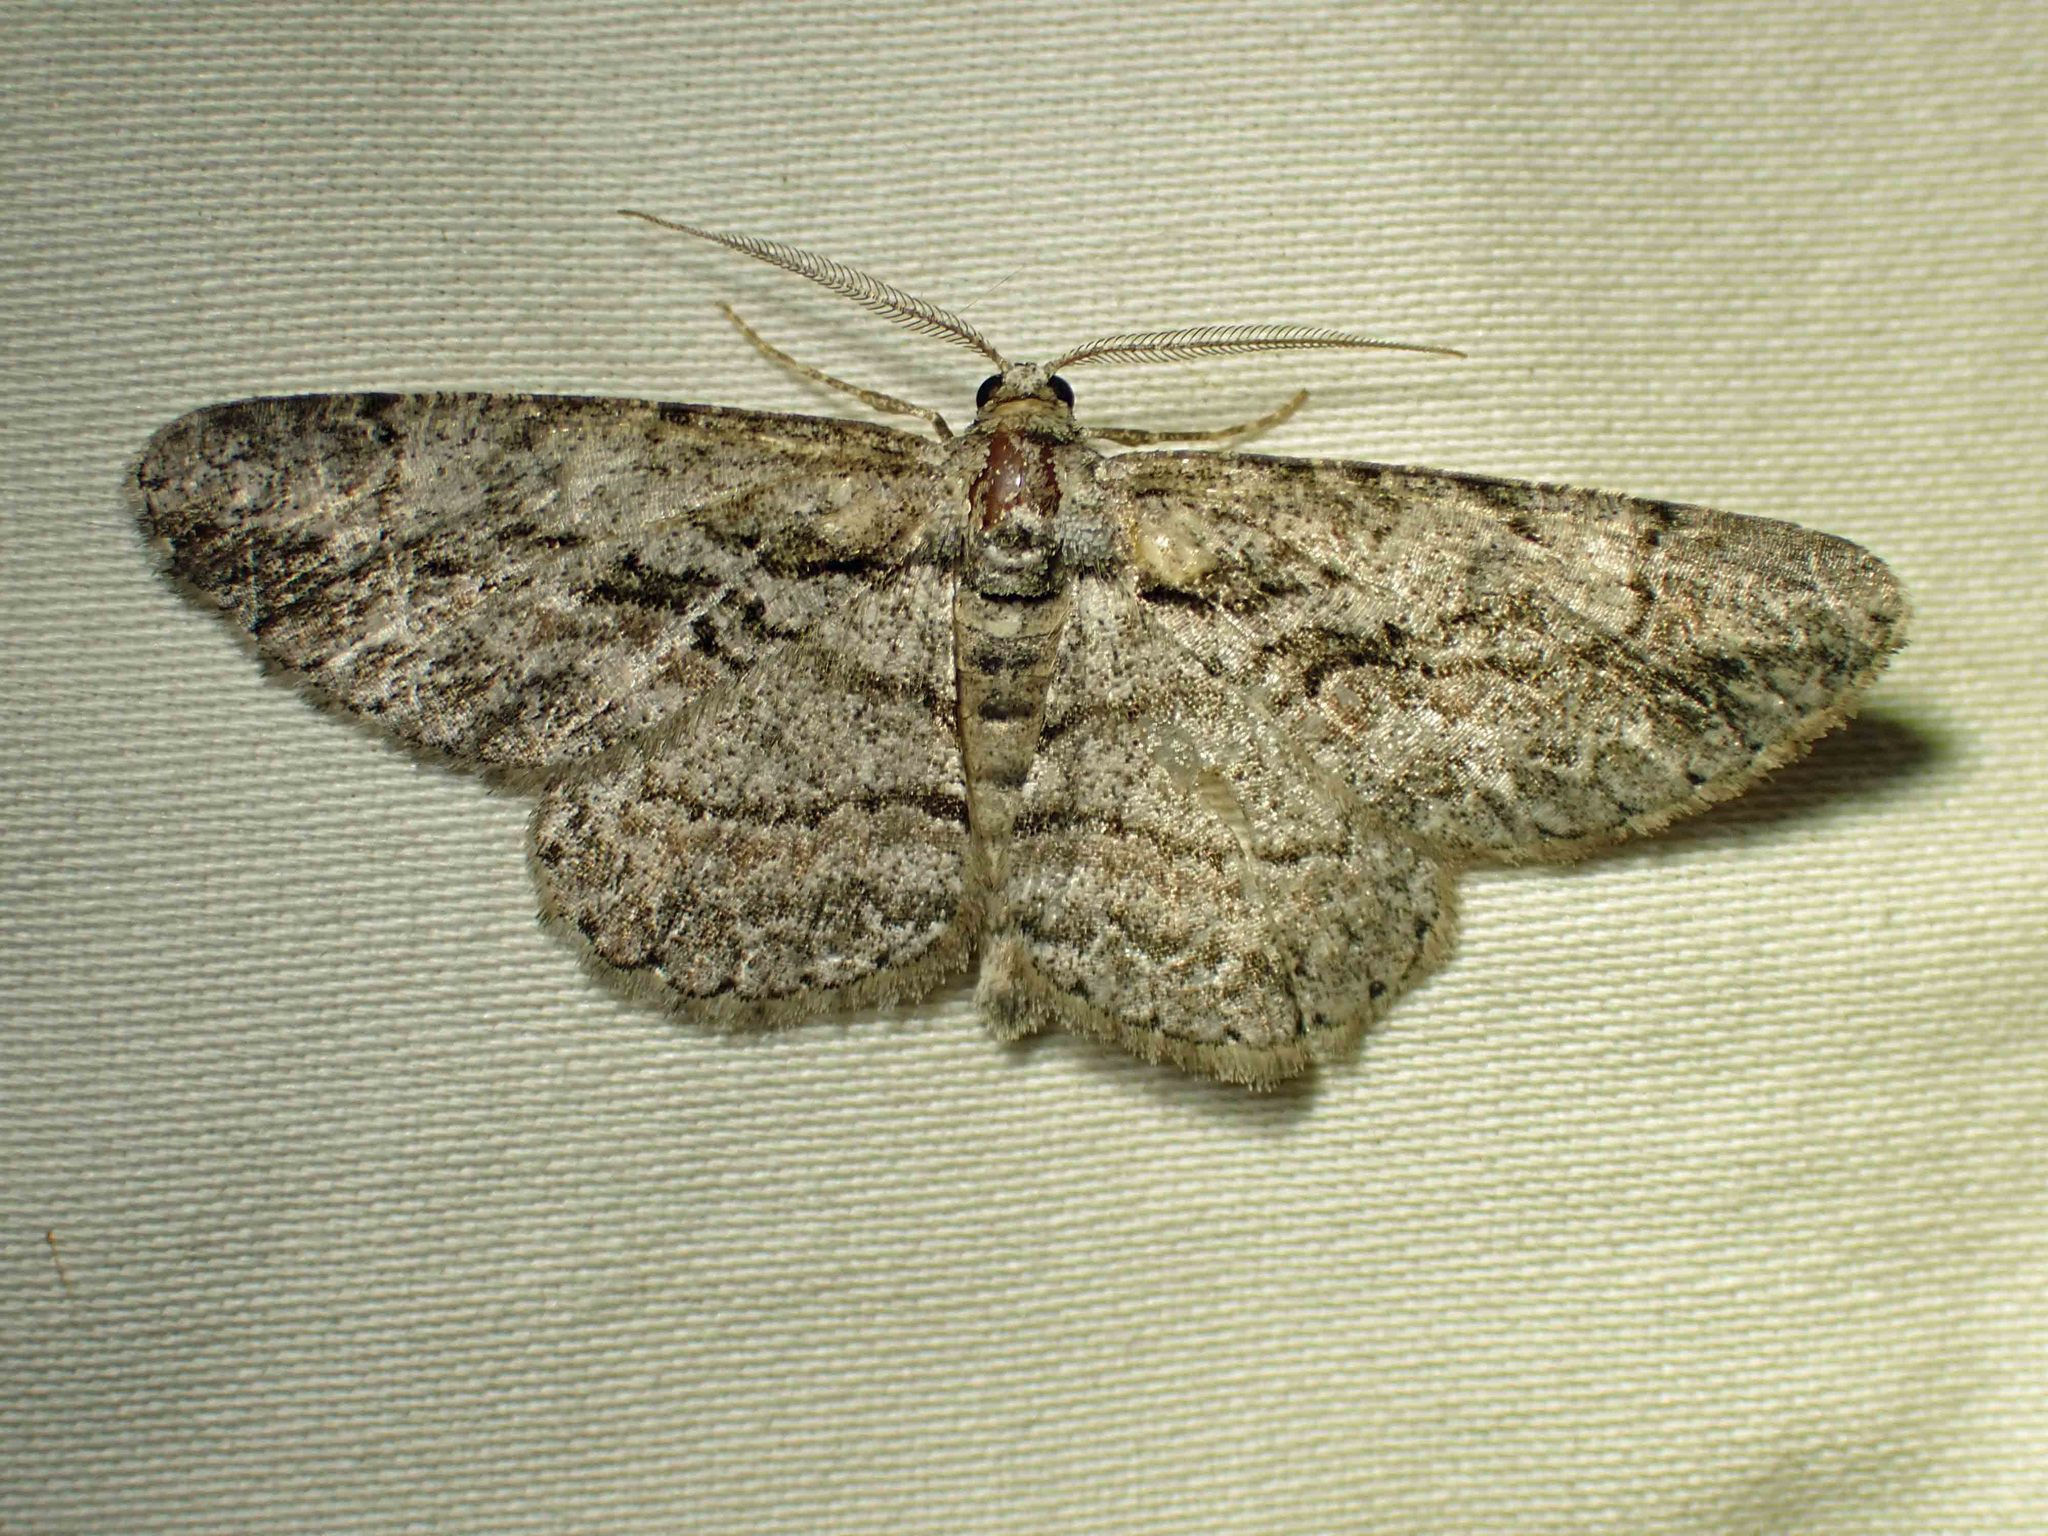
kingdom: Animalia
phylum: Arthropoda
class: Insecta
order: Lepidoptera
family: Geometridae
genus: Anavitrinella
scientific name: Anavitrinella pampinaria
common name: Common gray
